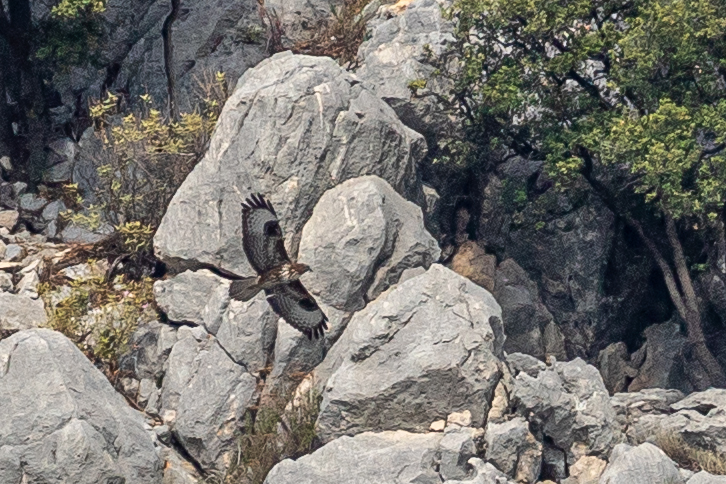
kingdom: Animalia
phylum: Chordata
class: Aves
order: Accipitriformes
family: Accipitridae
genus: Buteo
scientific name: Buteo buteo
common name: Common buzzard
